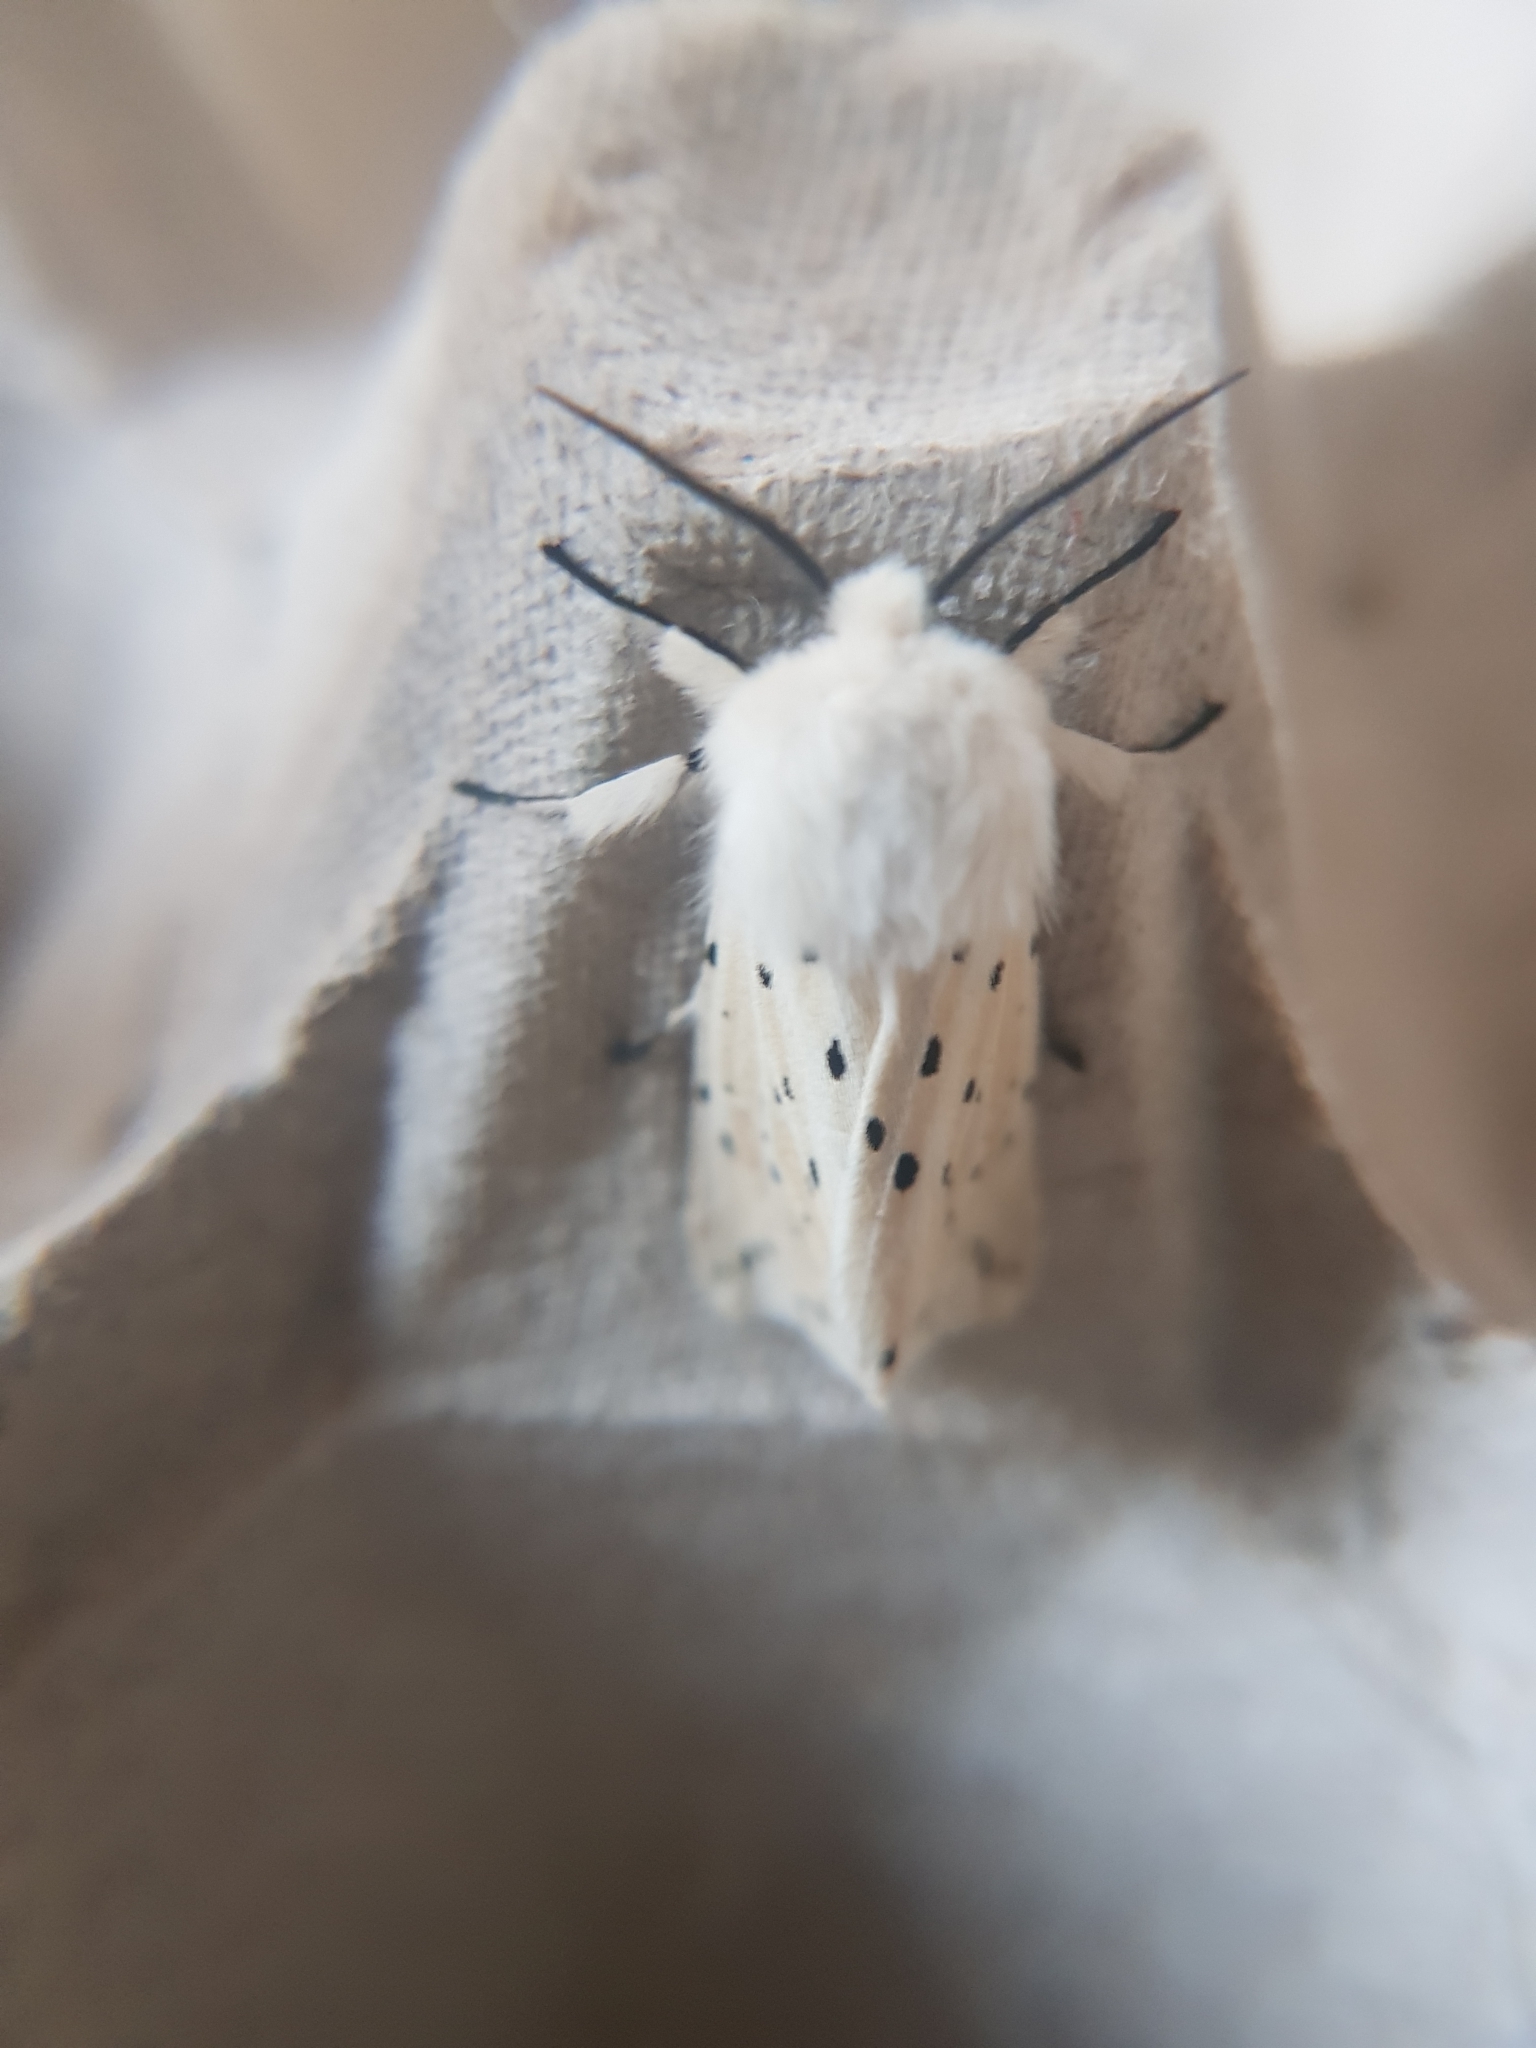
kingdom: Animalia
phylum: Arthropoda
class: Insecta
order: Lepidoptera
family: Noctuidae
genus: Lycophotia
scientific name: Lycophotia porphyrea
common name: True lover's knot
